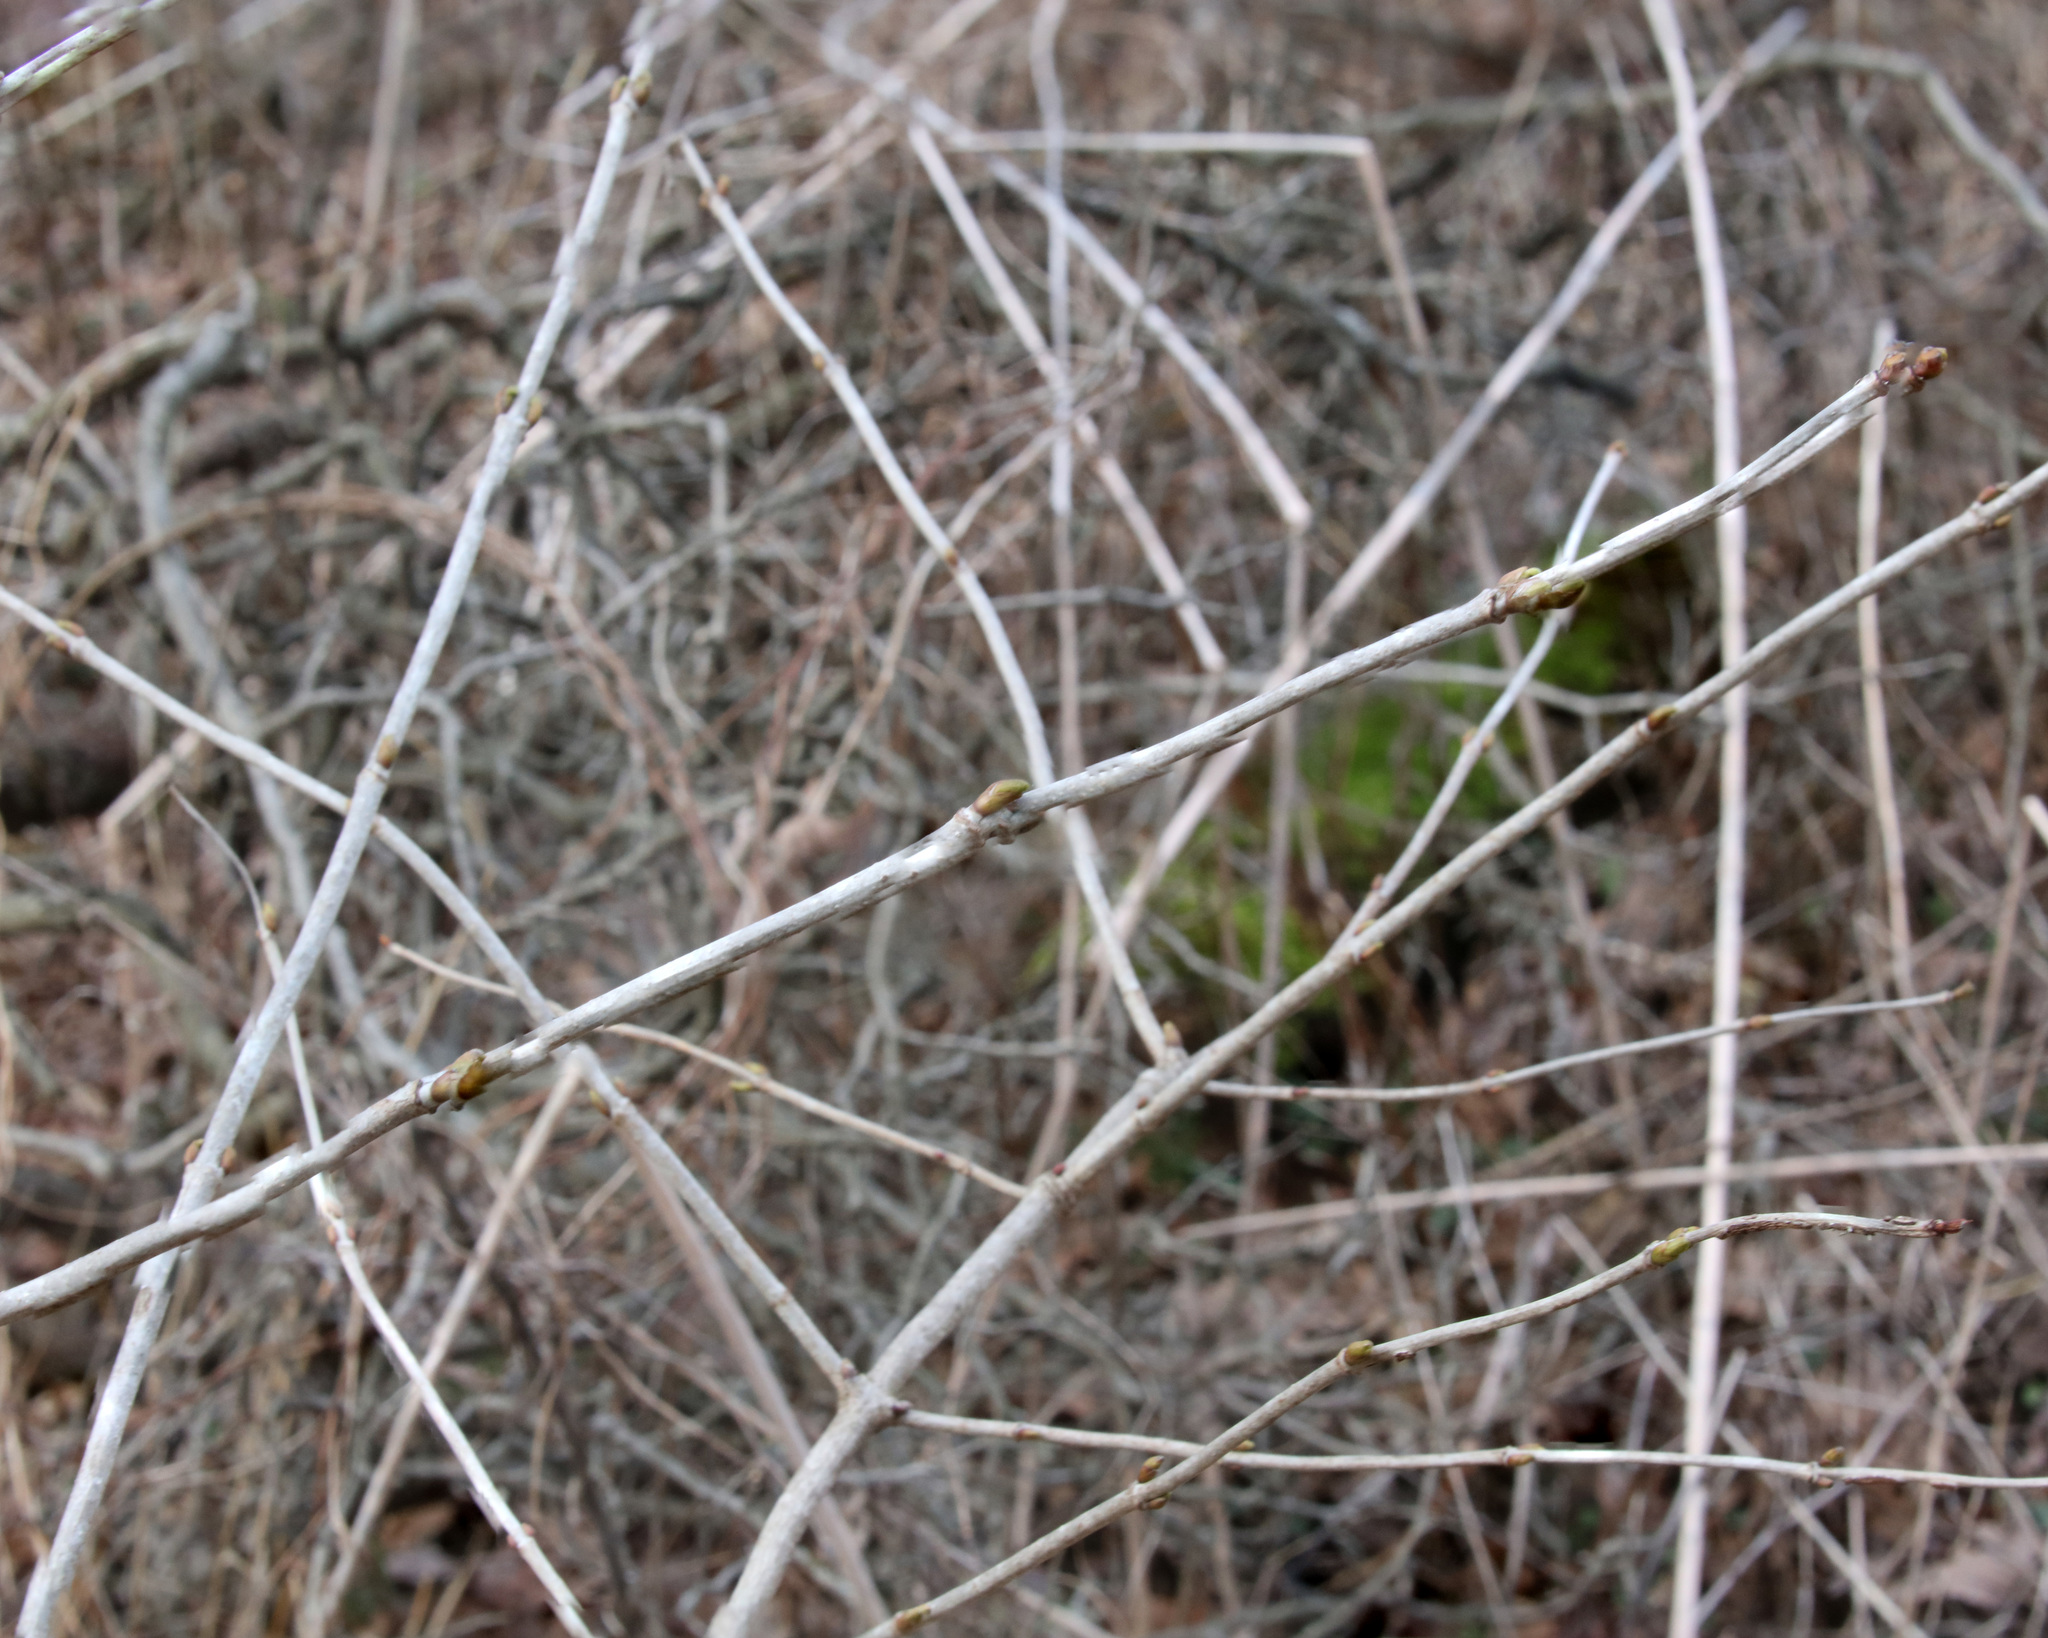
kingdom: Plantae
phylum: Tracheophyta
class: Magnoliopsida
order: Dipsacales
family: Viburnaceae
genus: Viburnum
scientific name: Viburnum opulus
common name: Guelder-rose
